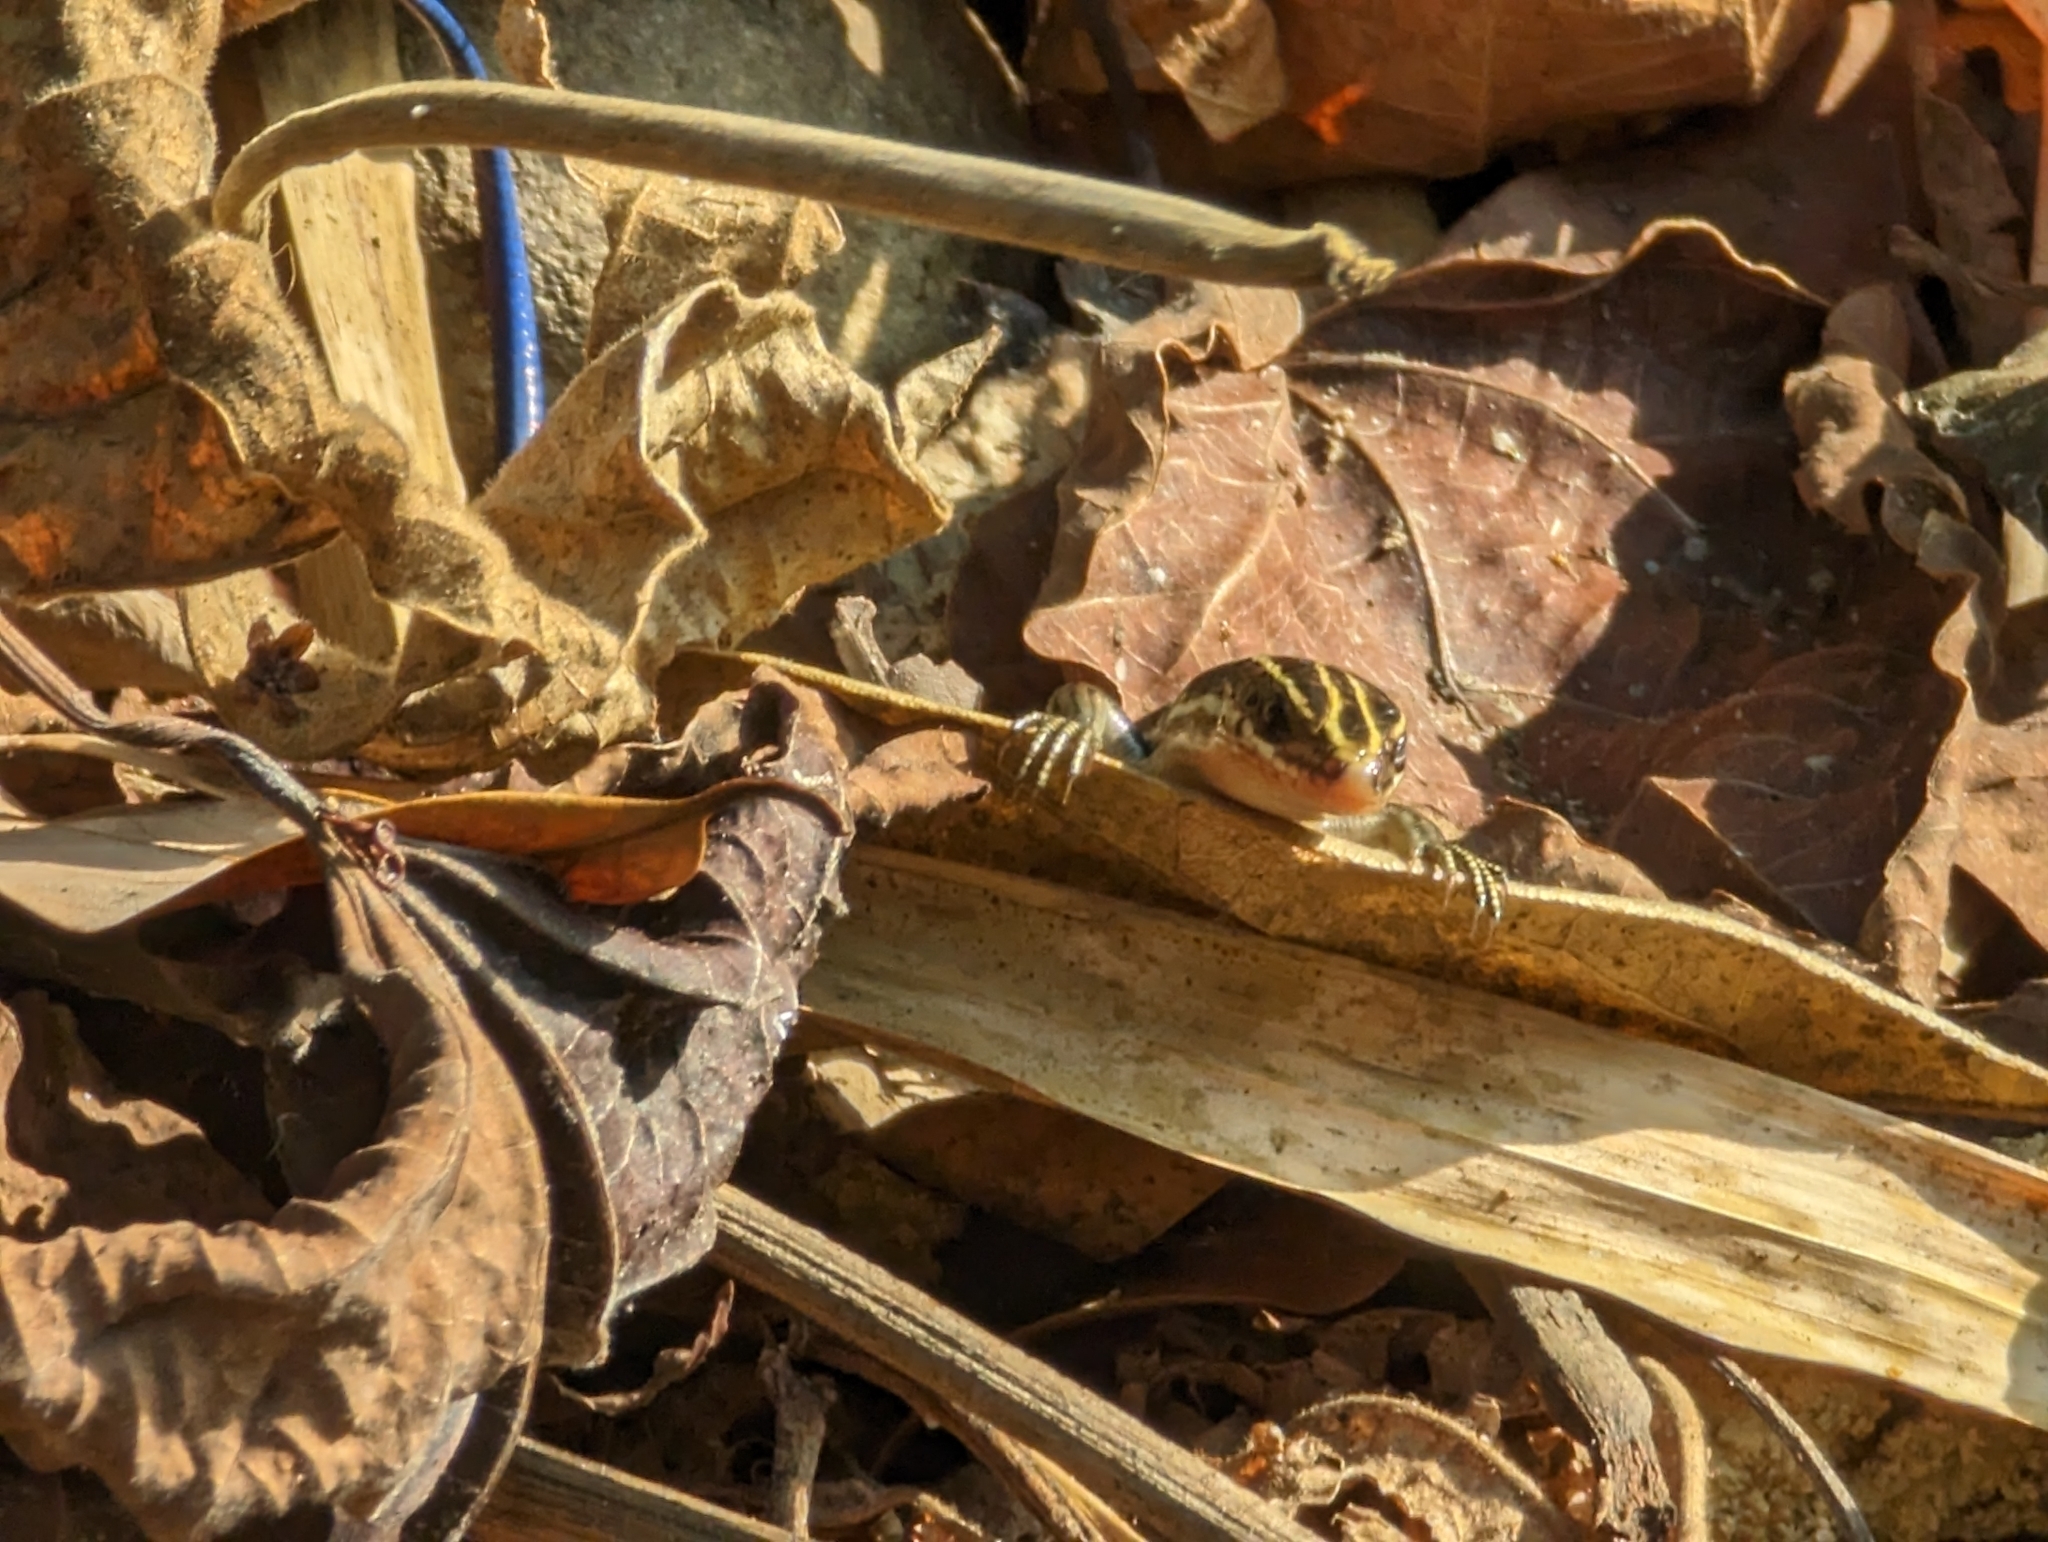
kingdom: Animalia
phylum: Chordata
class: Squamata
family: Scincidae
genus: Plestiodon
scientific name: Plestiodon elegans
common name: Shanghai elegant skink
